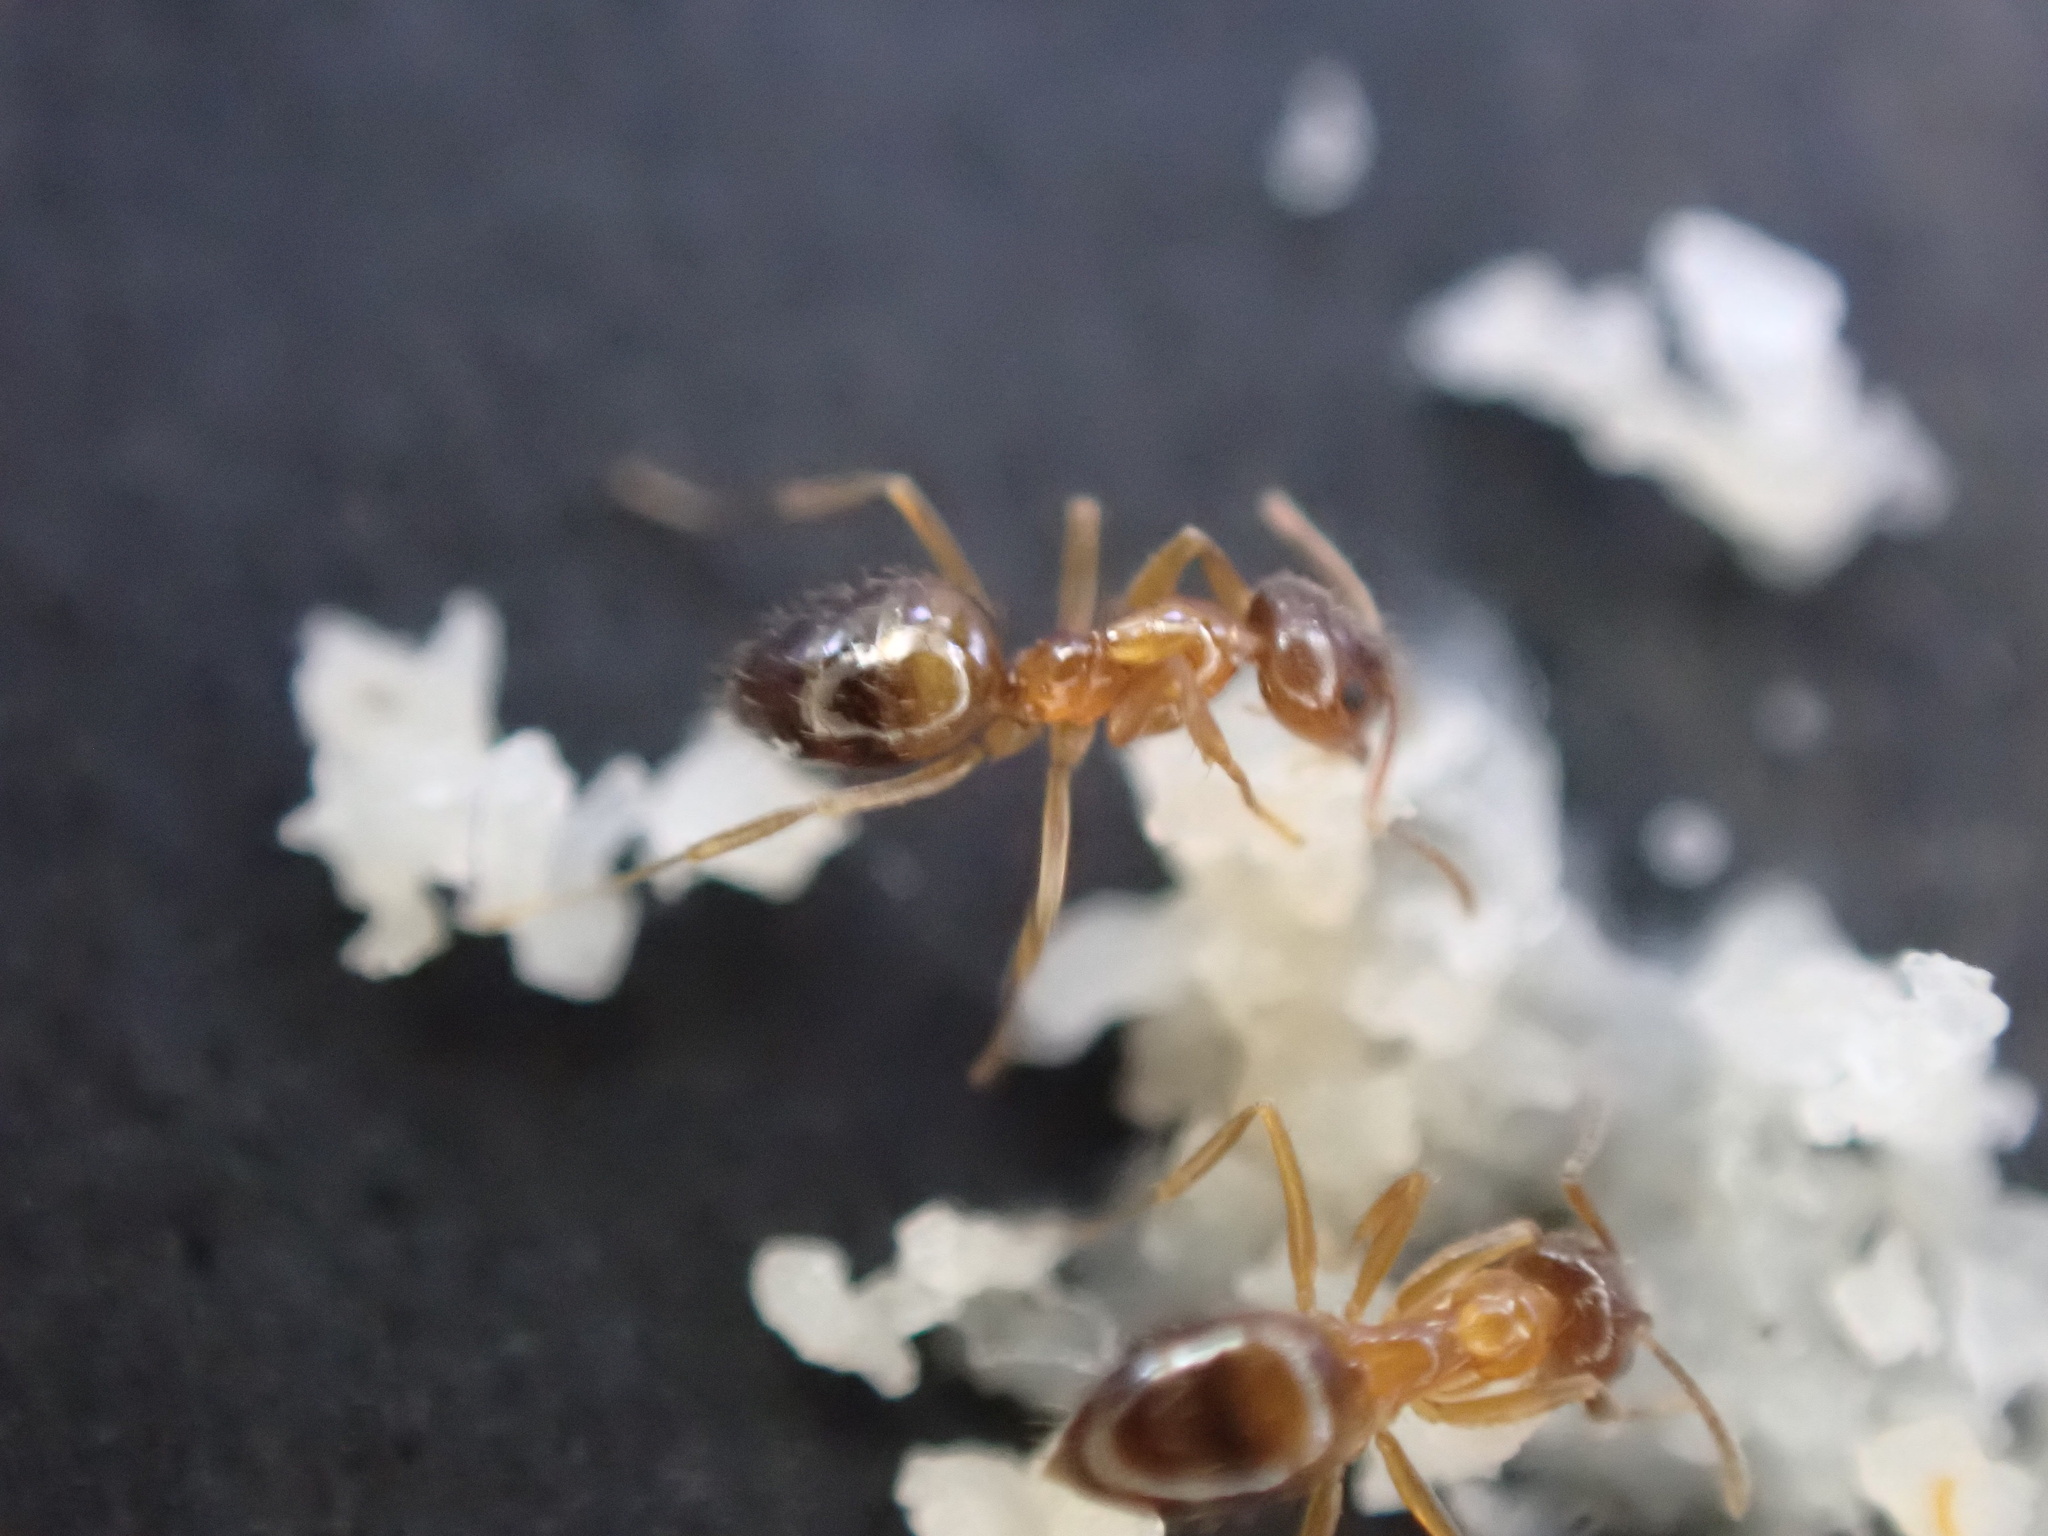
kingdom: Animalia
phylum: Arthropoda
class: Insecta
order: Hymenoptera
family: Formicidae
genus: Paratrechina
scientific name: Paratrechina flavipes
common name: Eastern asian formicine ant
